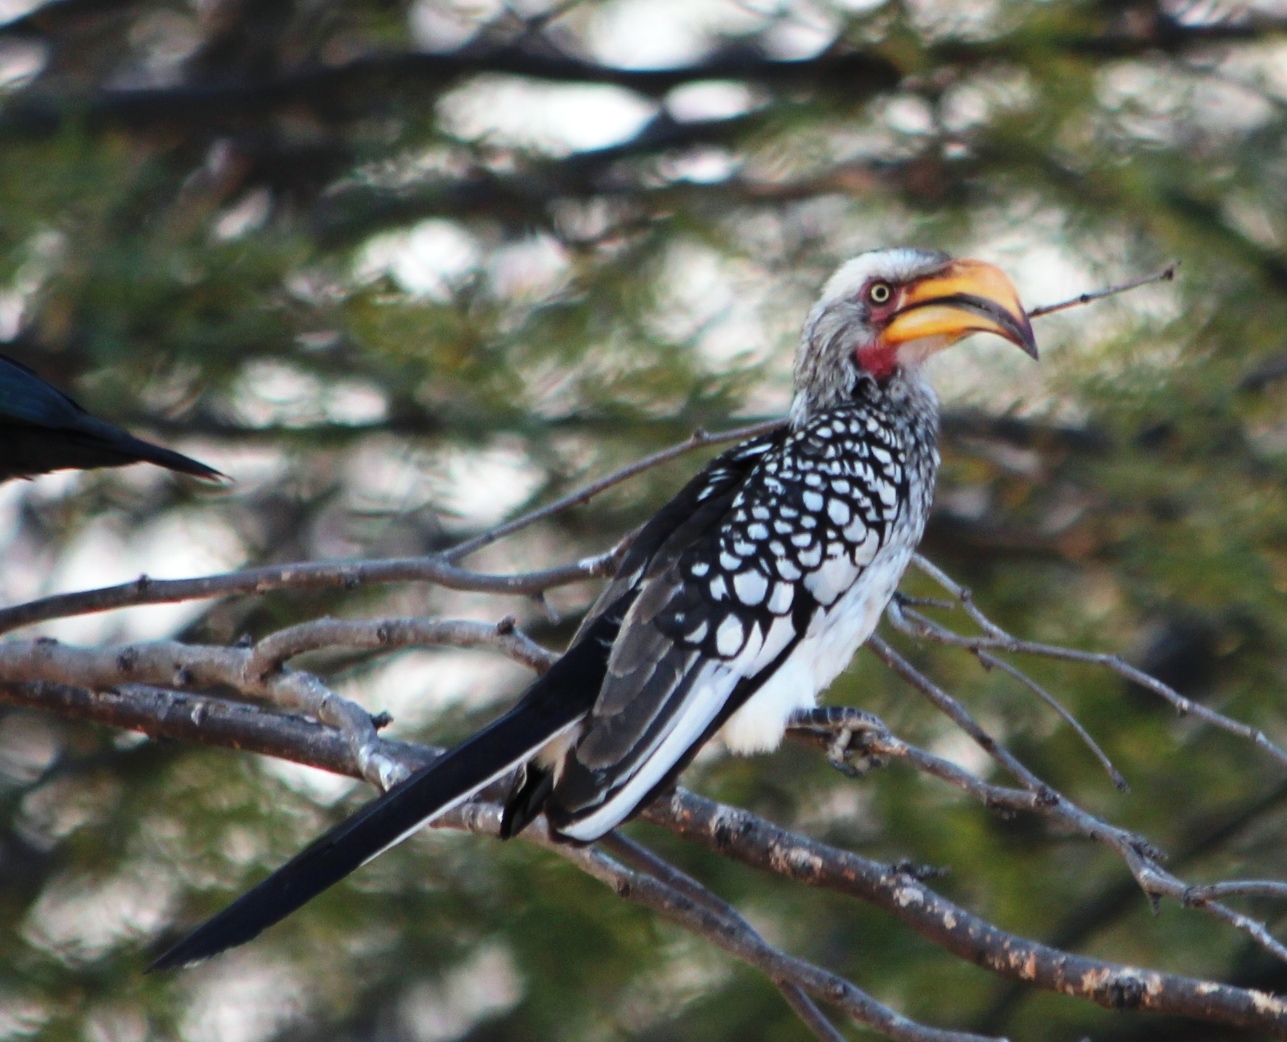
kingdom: Animalia
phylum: Chordata
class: Aves
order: Bucerotiformes
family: Bucerotidae
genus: Tockus
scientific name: Tockus leucomelas
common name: Southern yellow-billed hornbill
